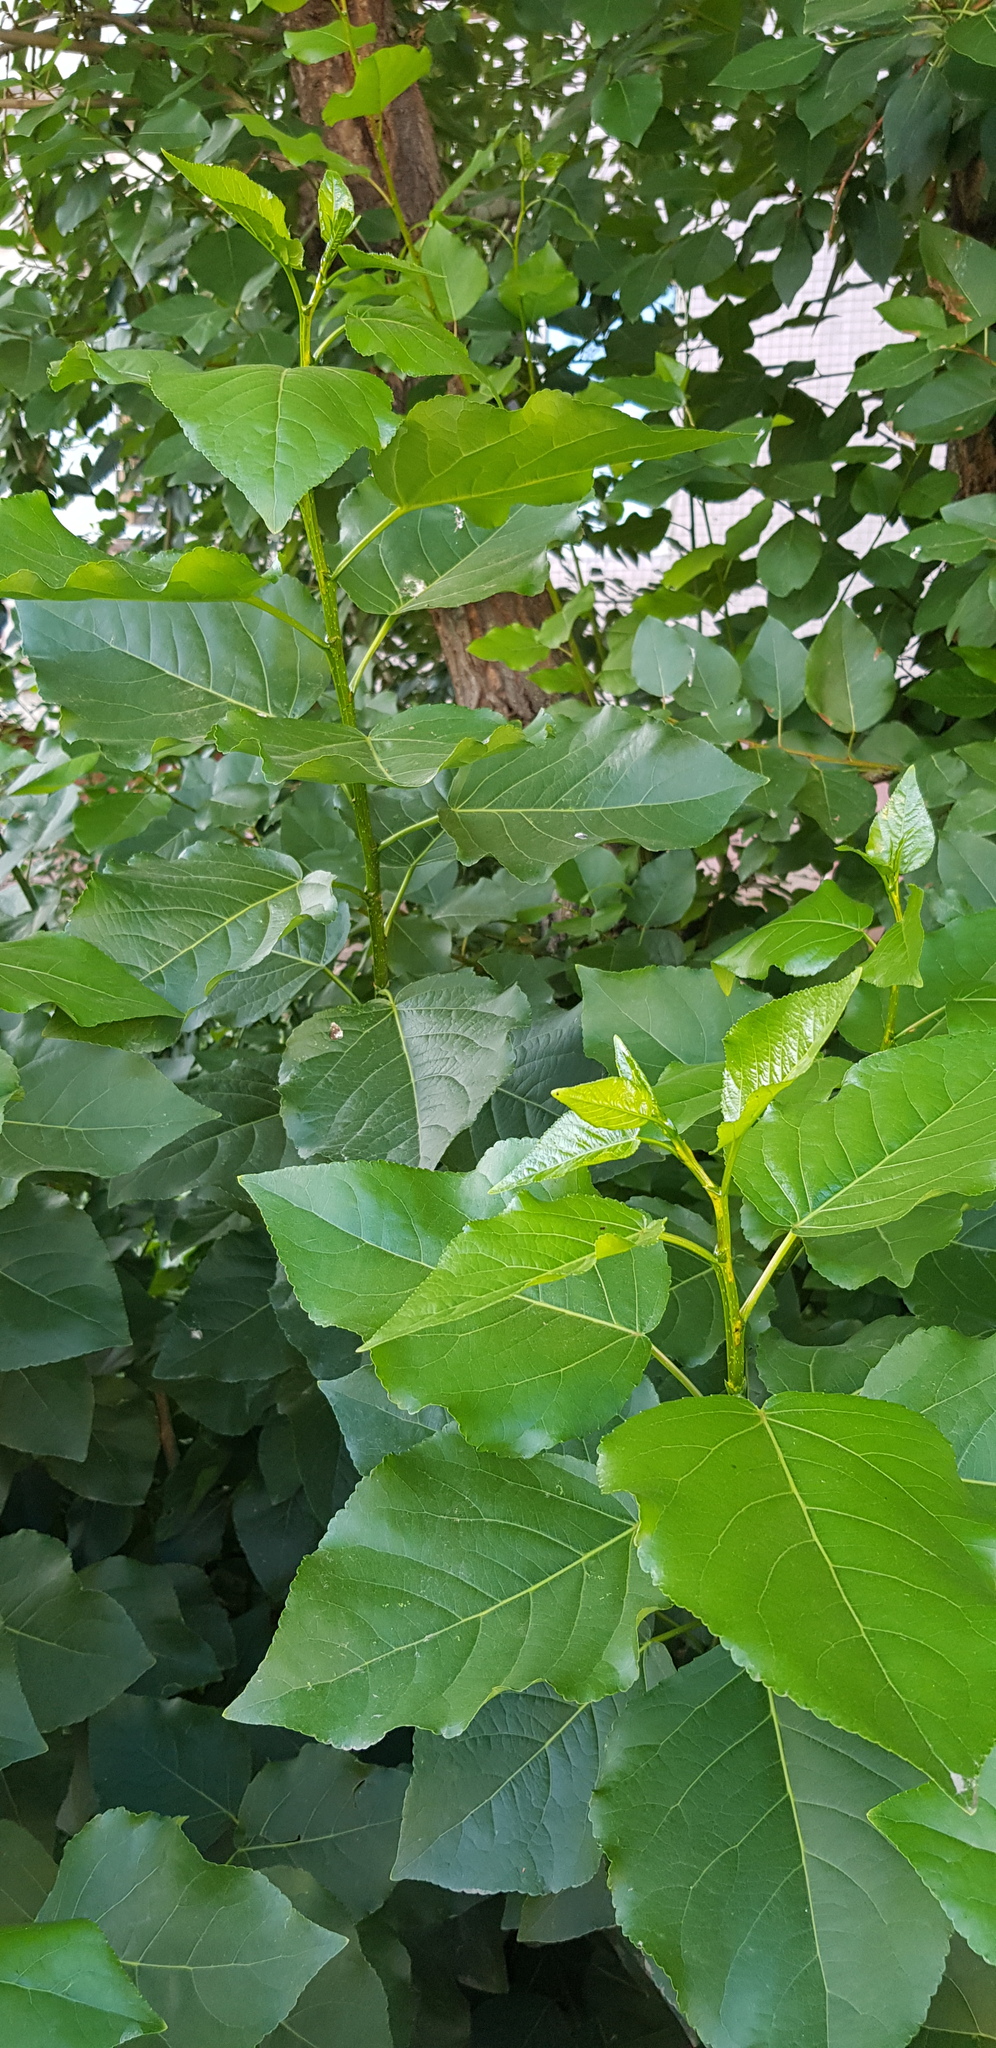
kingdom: Plantae
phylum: Tracheophyta
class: Magnoliopsida
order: Malpighiales
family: Salicaceae
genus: Populus
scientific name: Populus suaveolens
